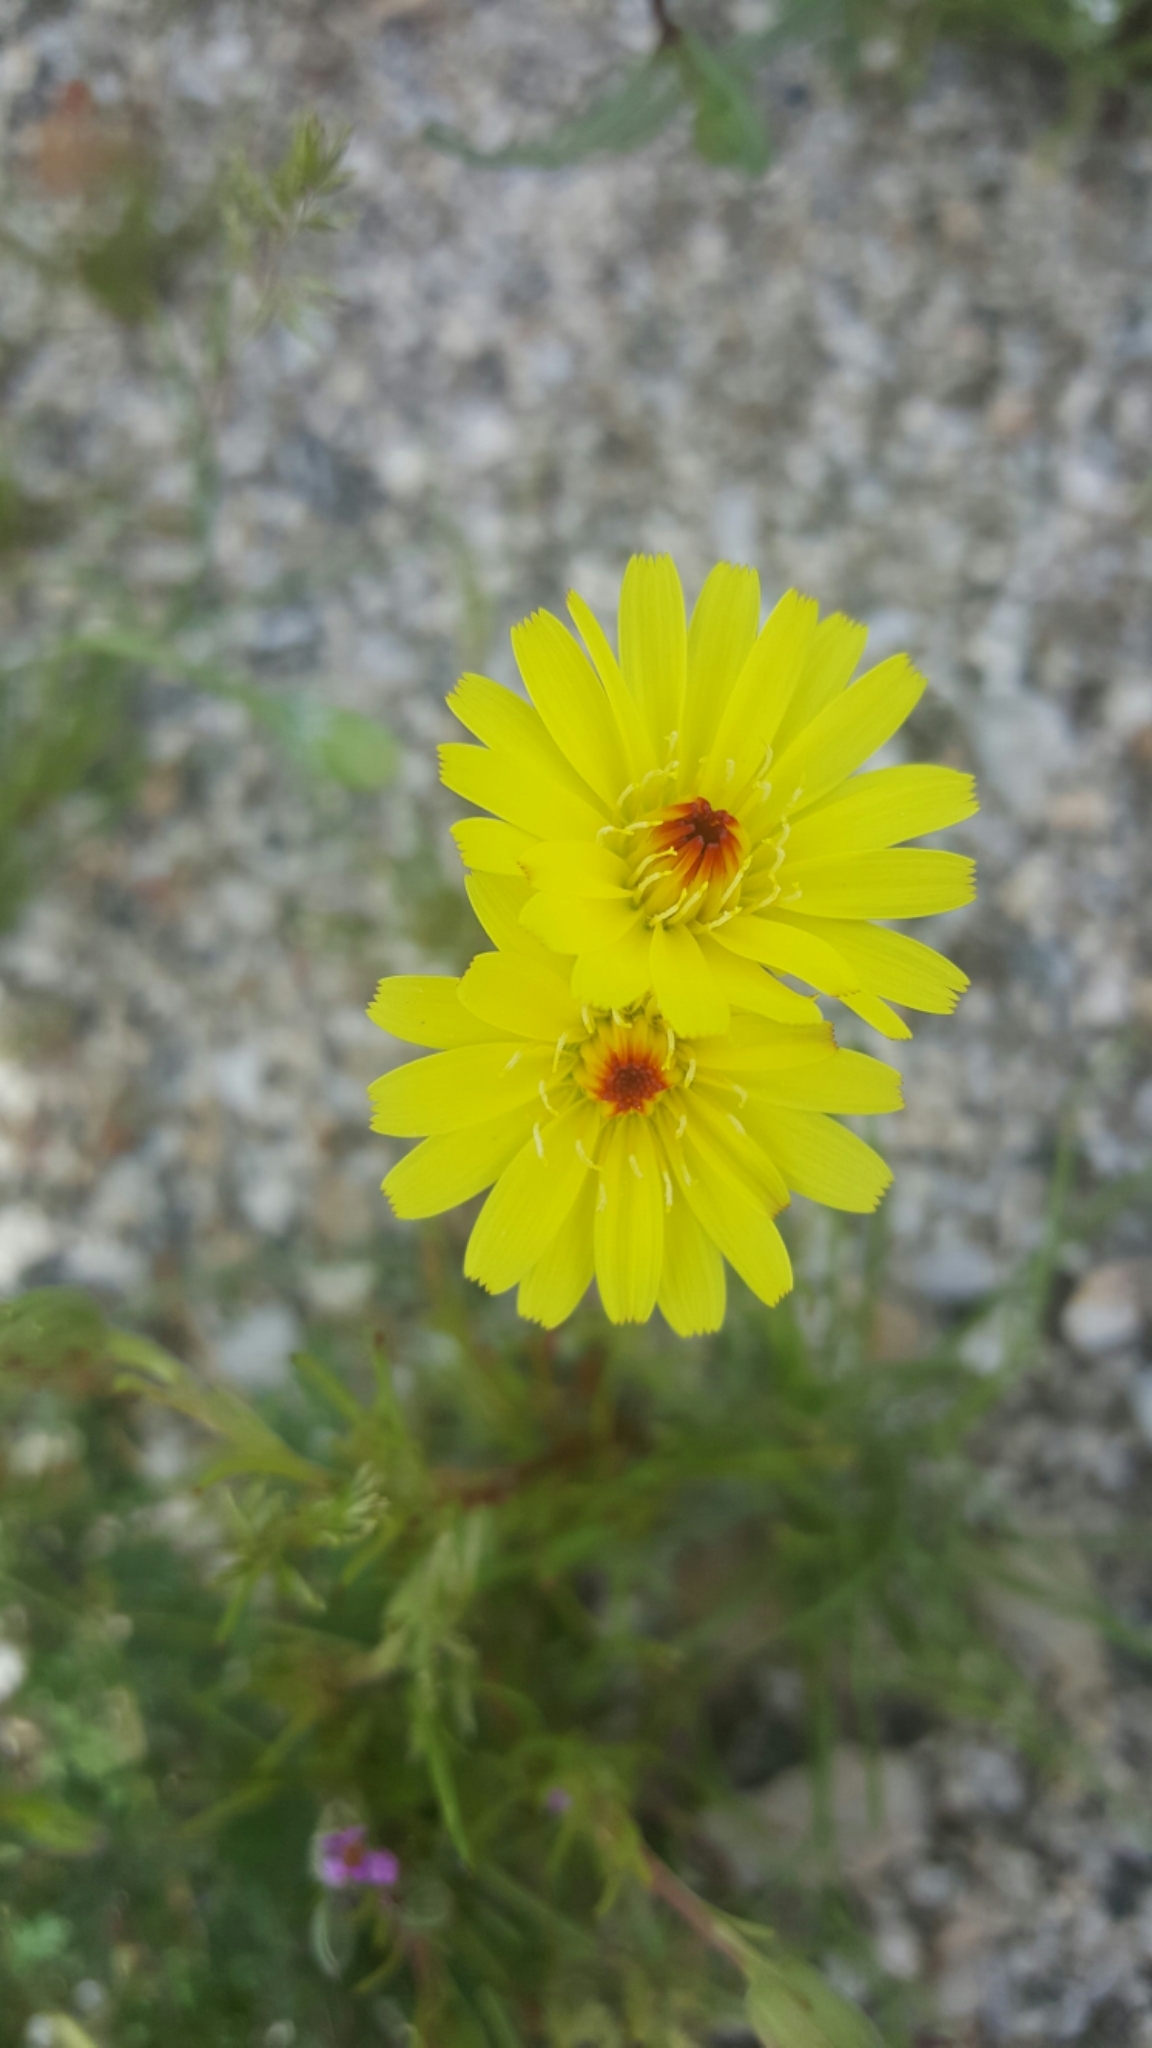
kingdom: Plantae
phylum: Tracheophyta
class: Magnoliopsida
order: Asterales
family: Asteraceae
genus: Malacothrix
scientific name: Malacothrix glabrata
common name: Smooth desert-dandelion
